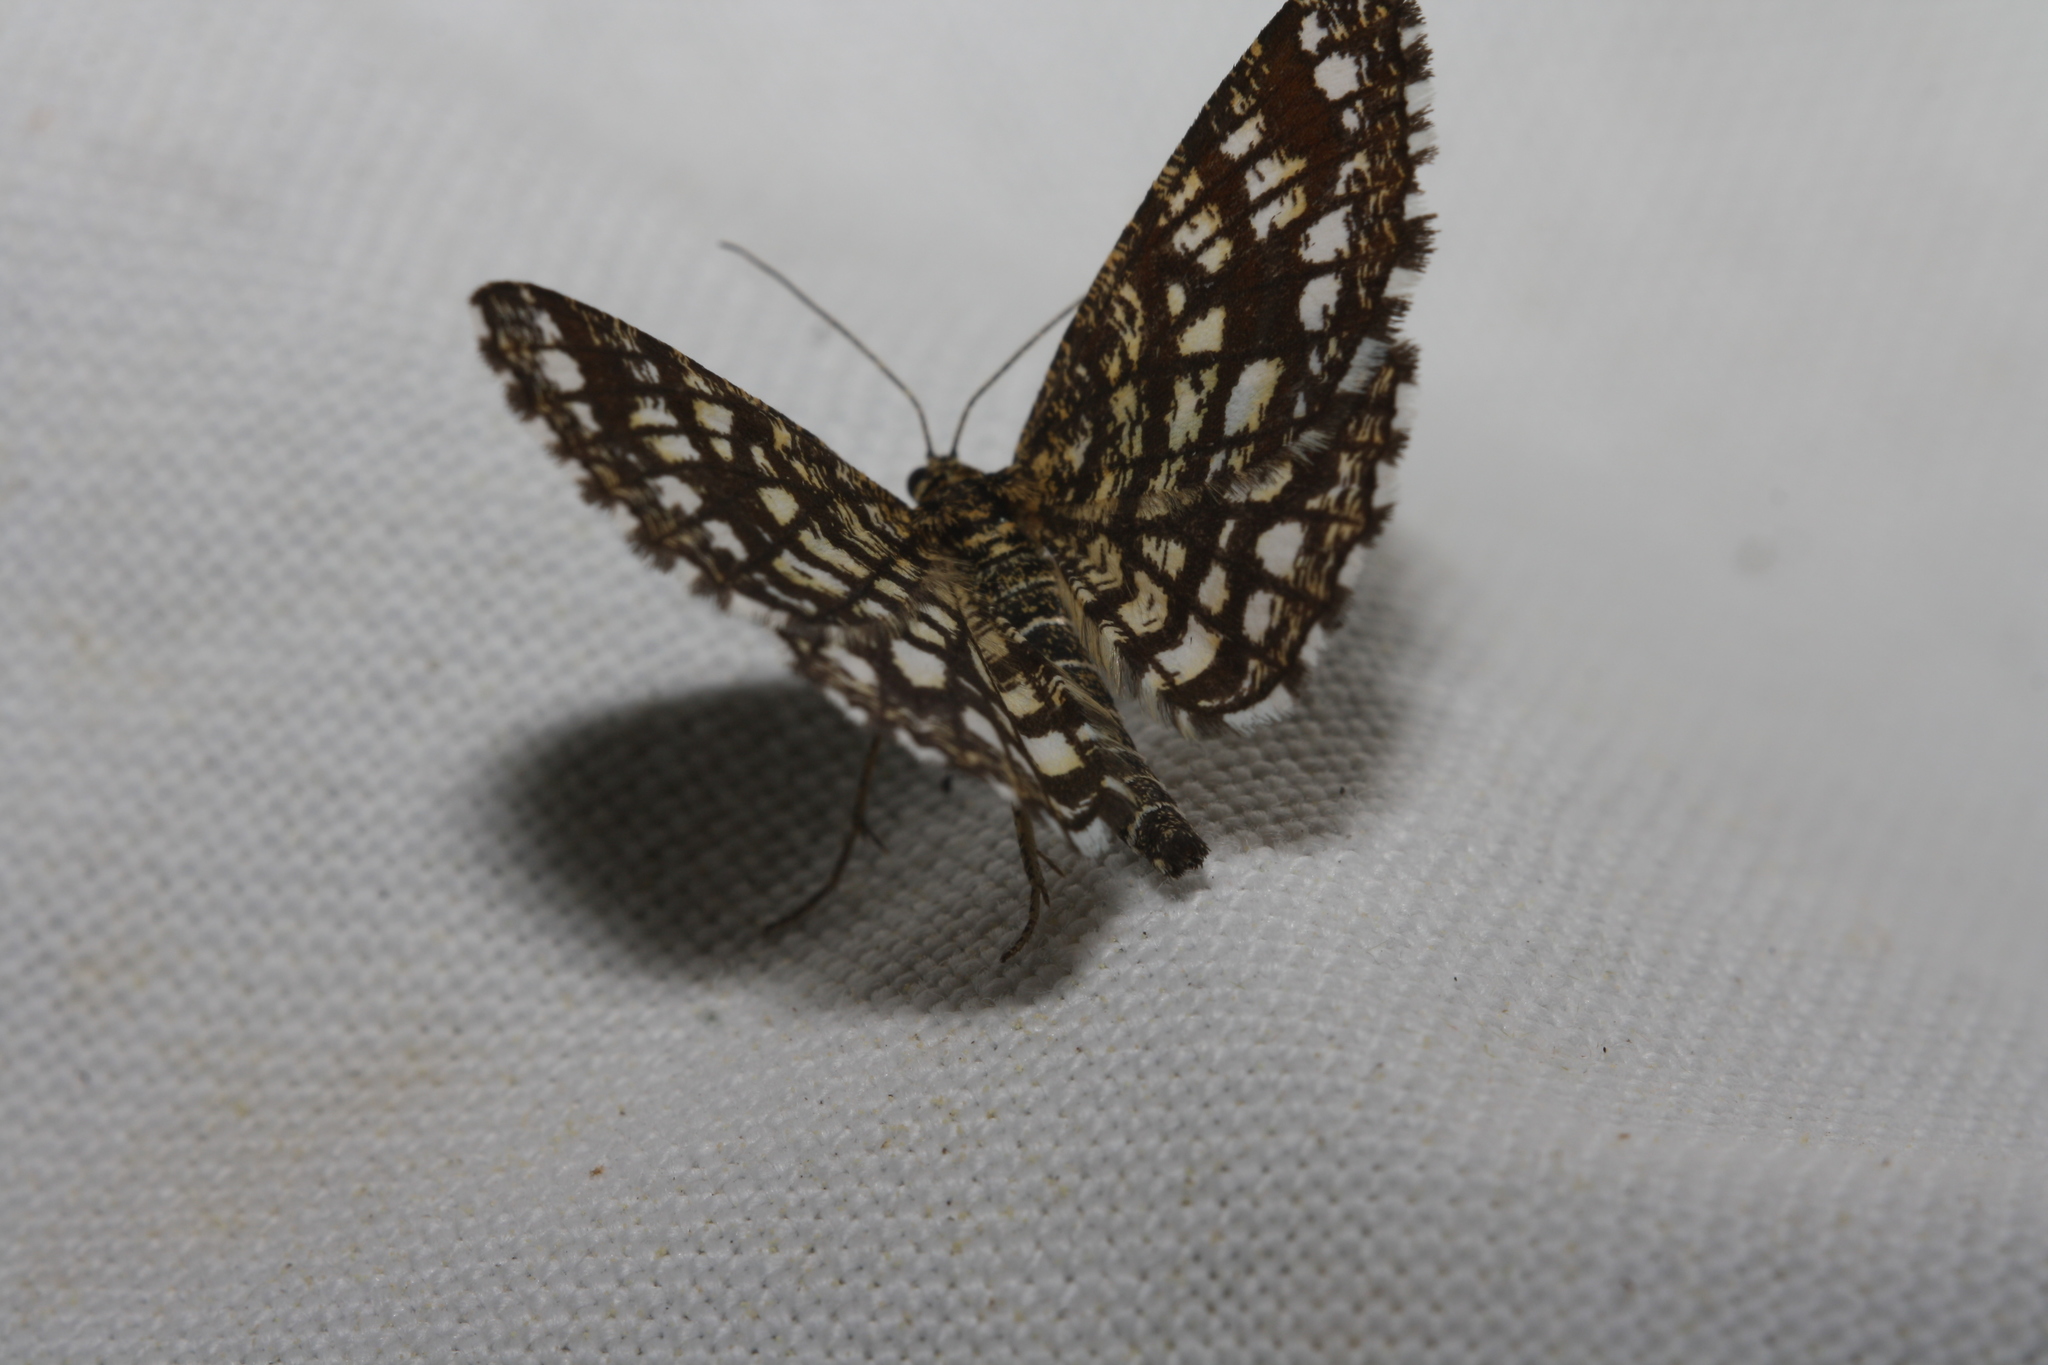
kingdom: Animalia
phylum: Arthropoda
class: Insecta
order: Lepidoptera
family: Geometridae
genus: Chiasmia
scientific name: Chiasmia clathrata
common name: Latticed heath
